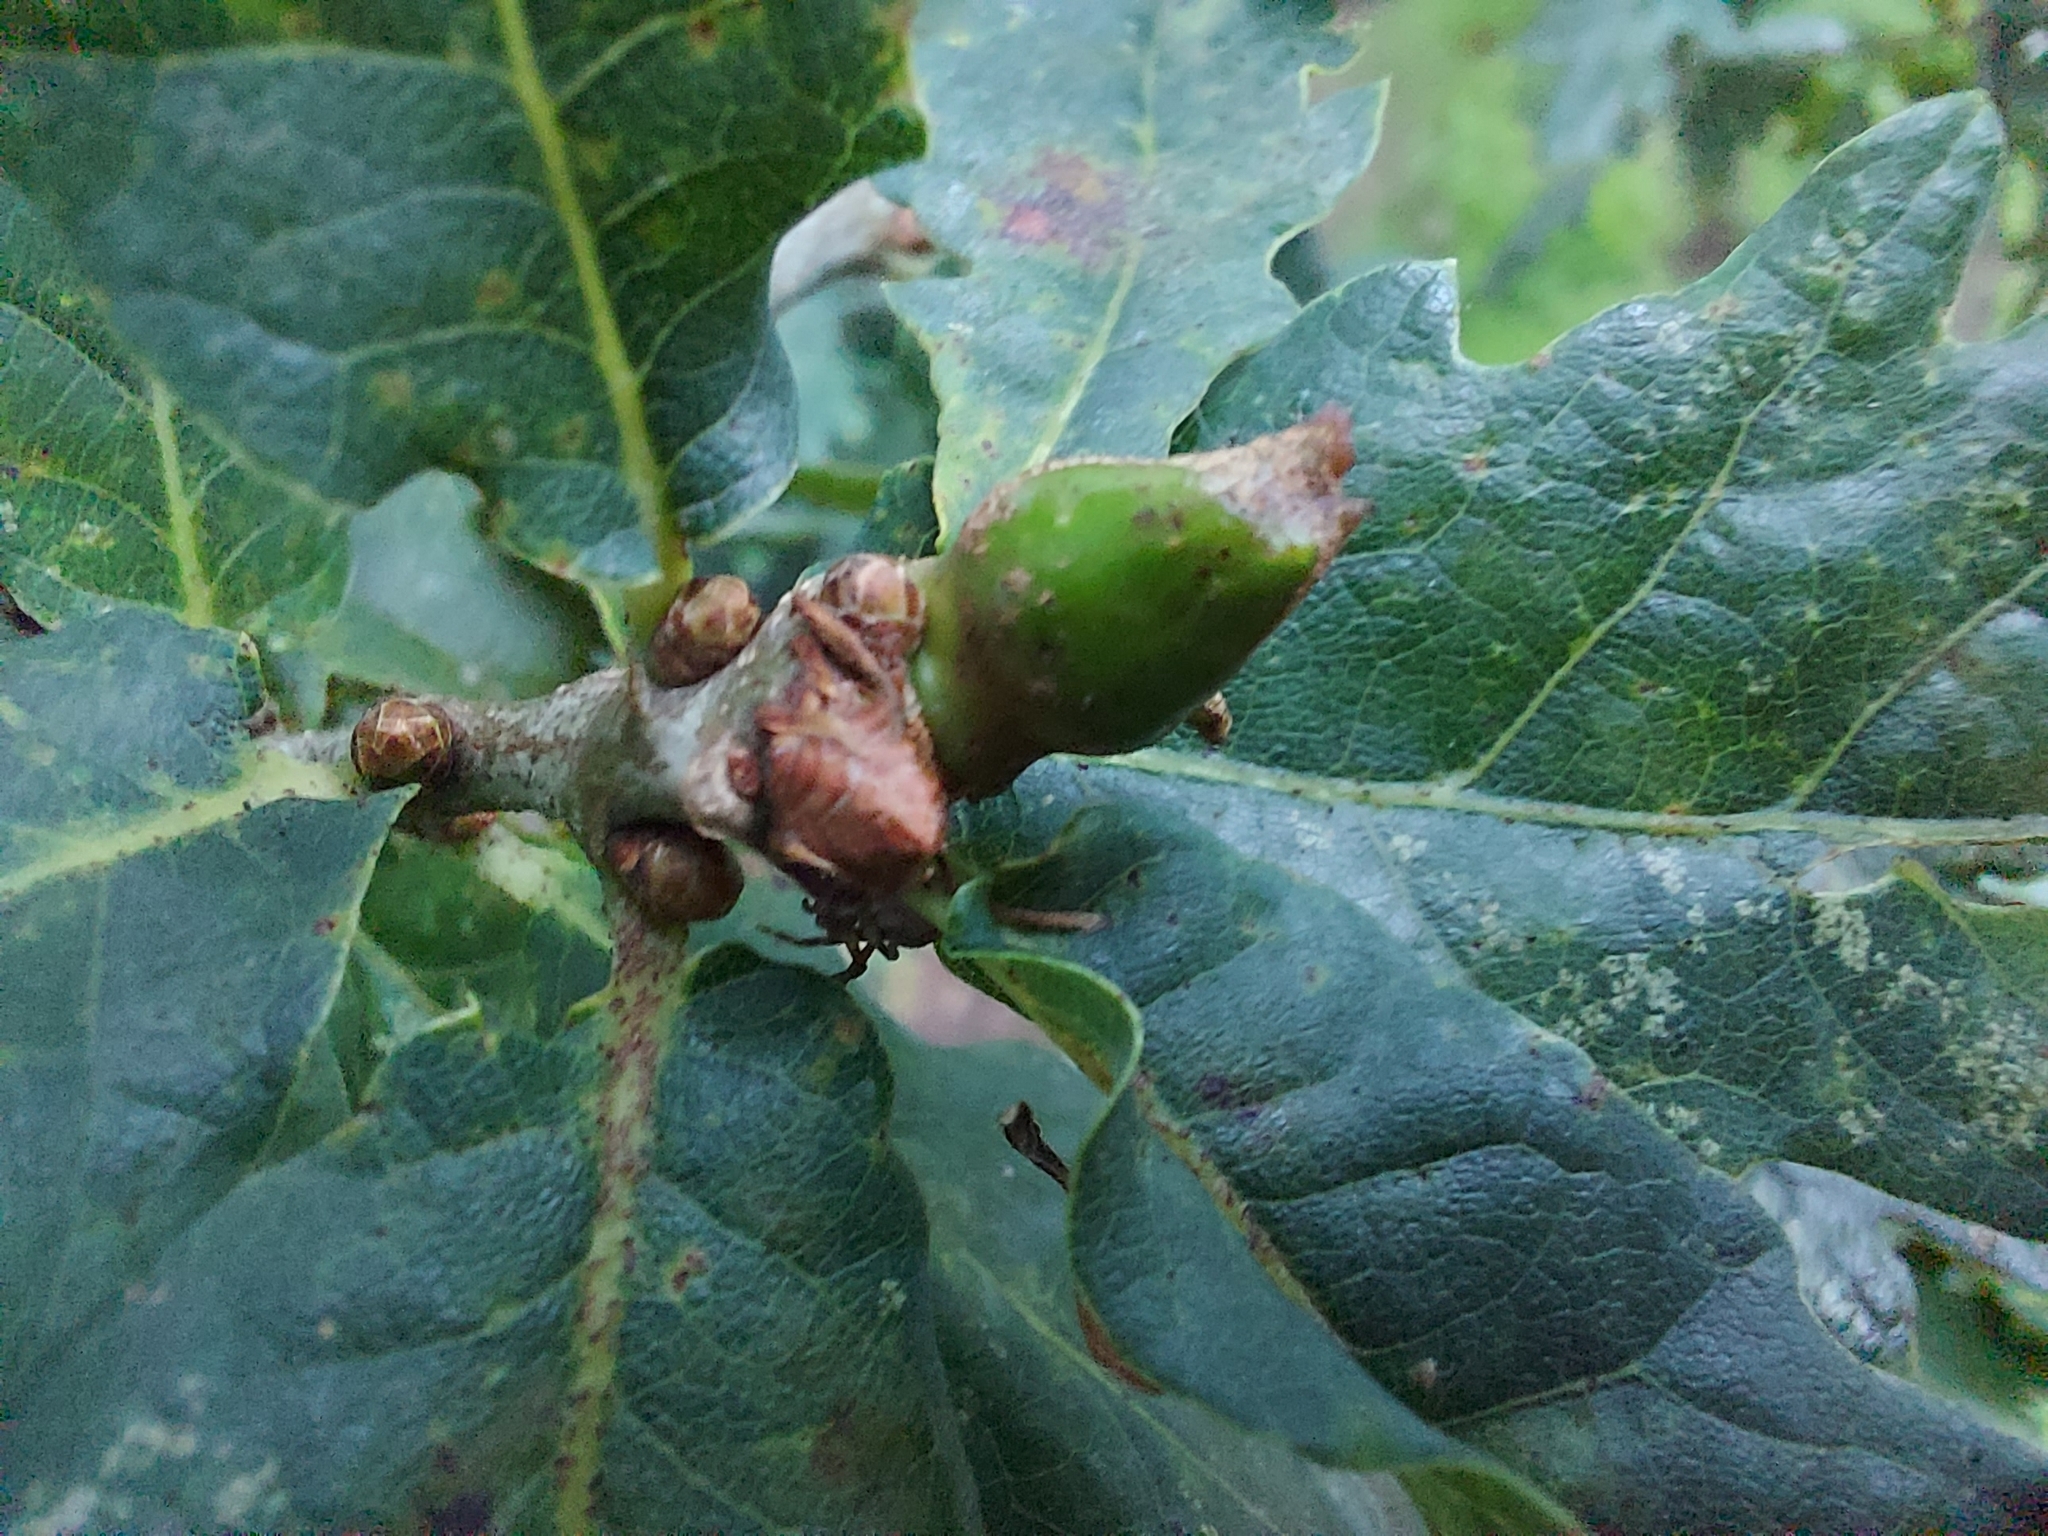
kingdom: Animalia
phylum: Arthropoda
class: Insecta
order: Hymenoptera
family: Cynipidae
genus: Andricus
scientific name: Andricus aries
